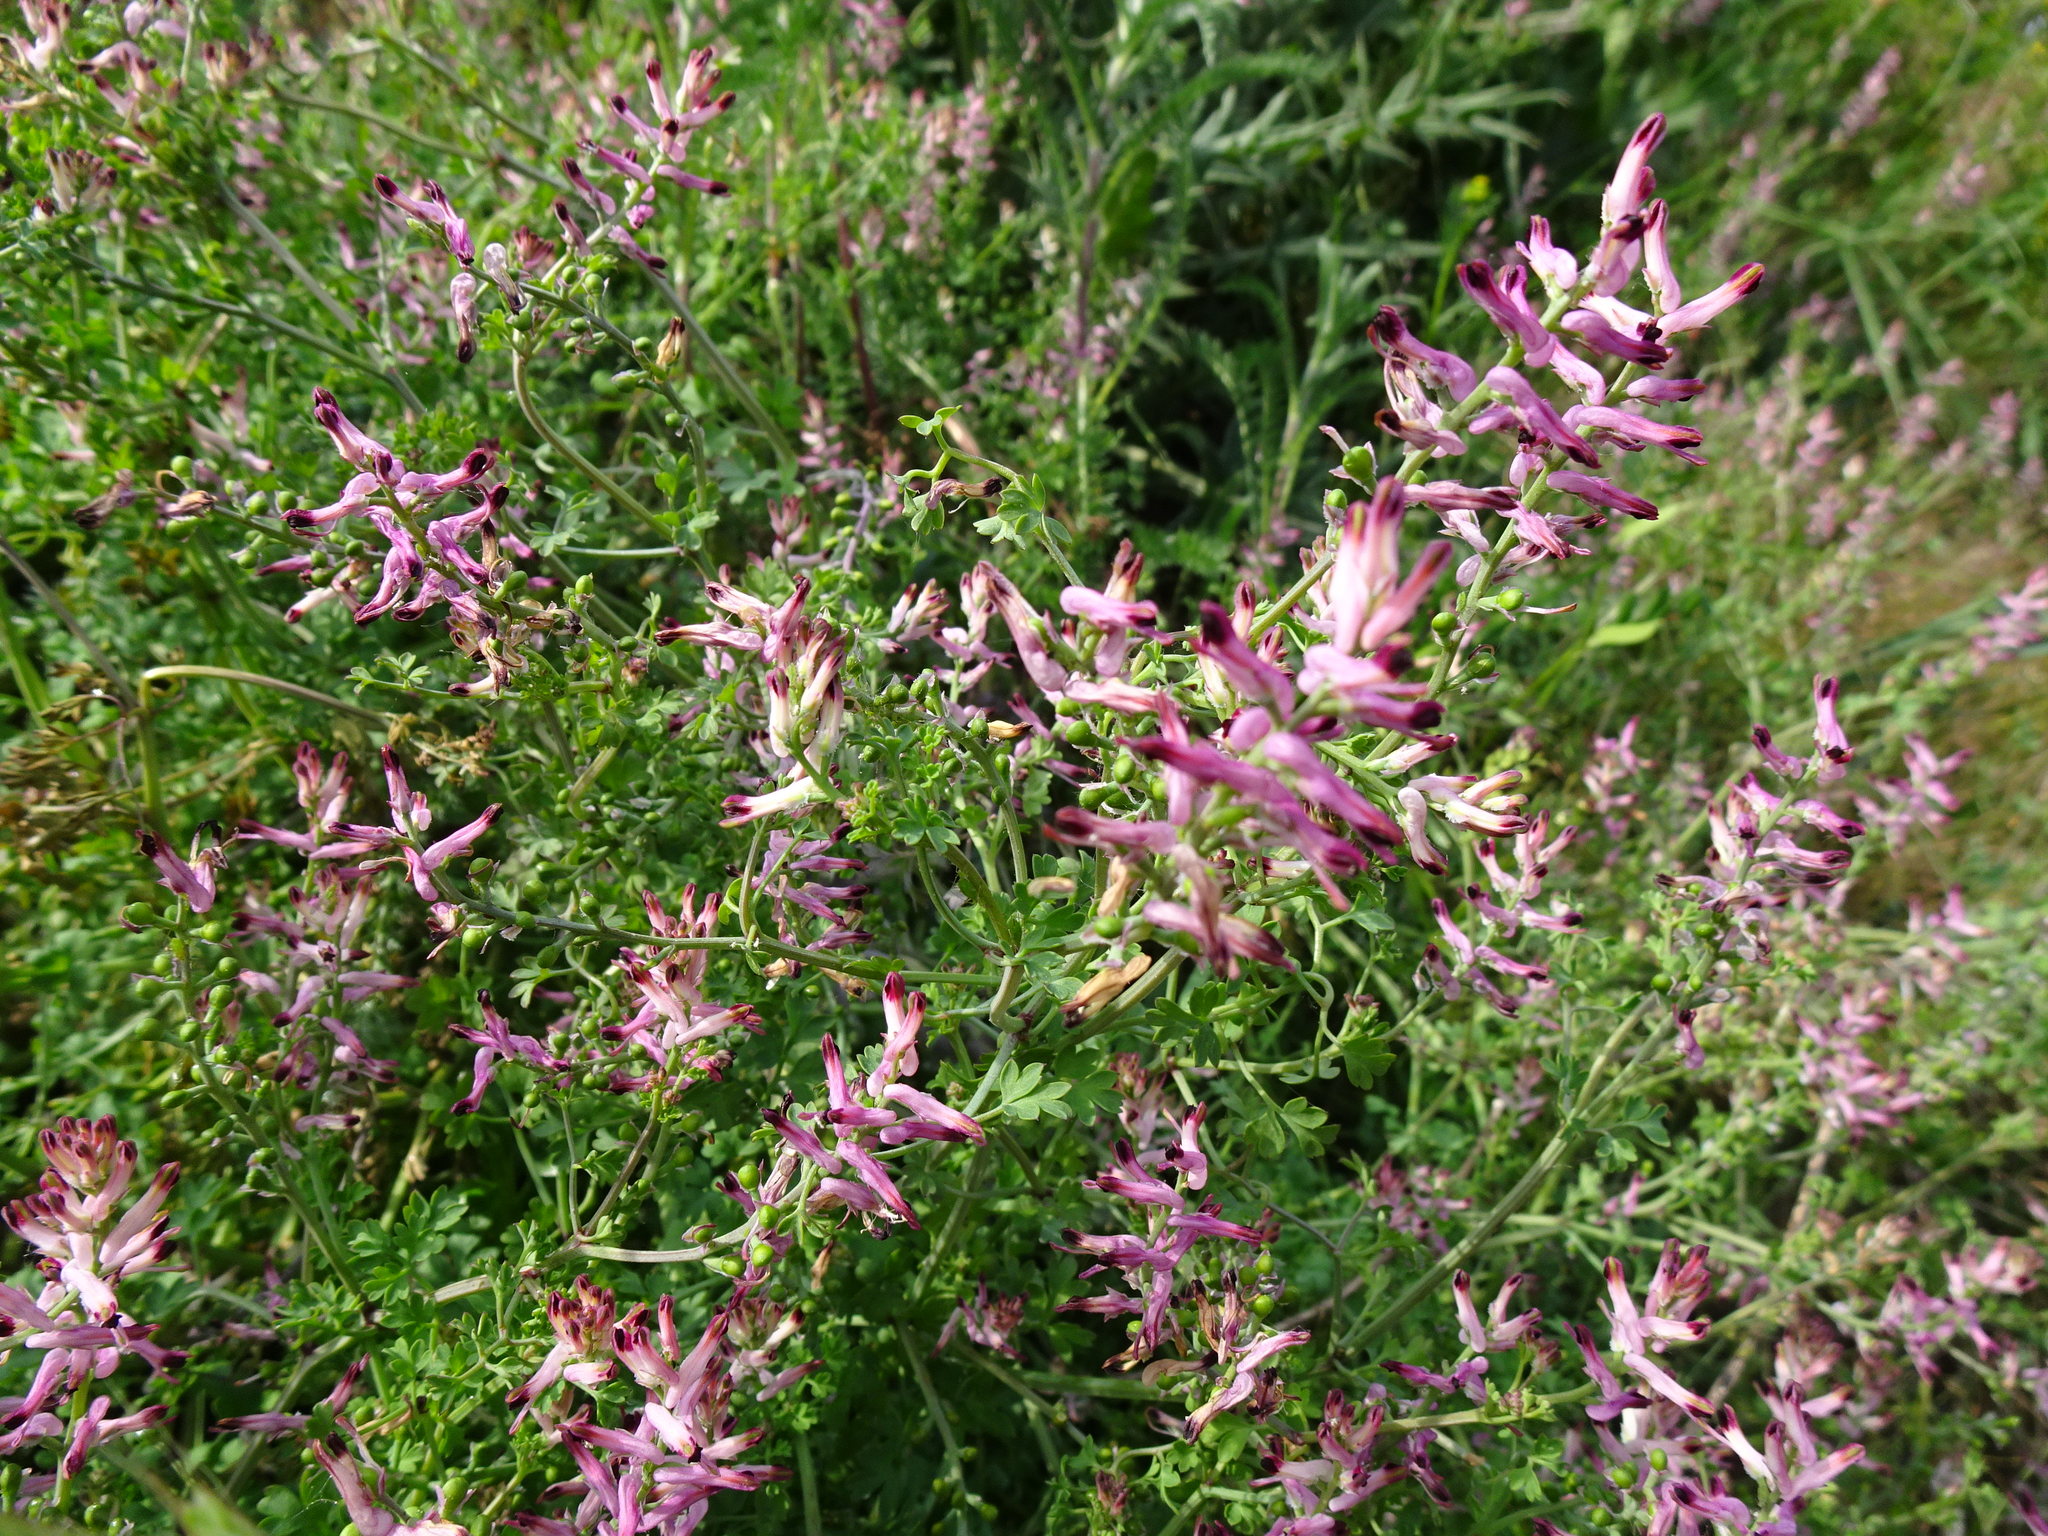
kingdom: Plantae
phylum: Tracheophyta
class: Magnoliopsida
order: Ranunculales
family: Papaveraceae
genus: Fumaria
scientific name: Fumaria officinalis
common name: Common fumitory
